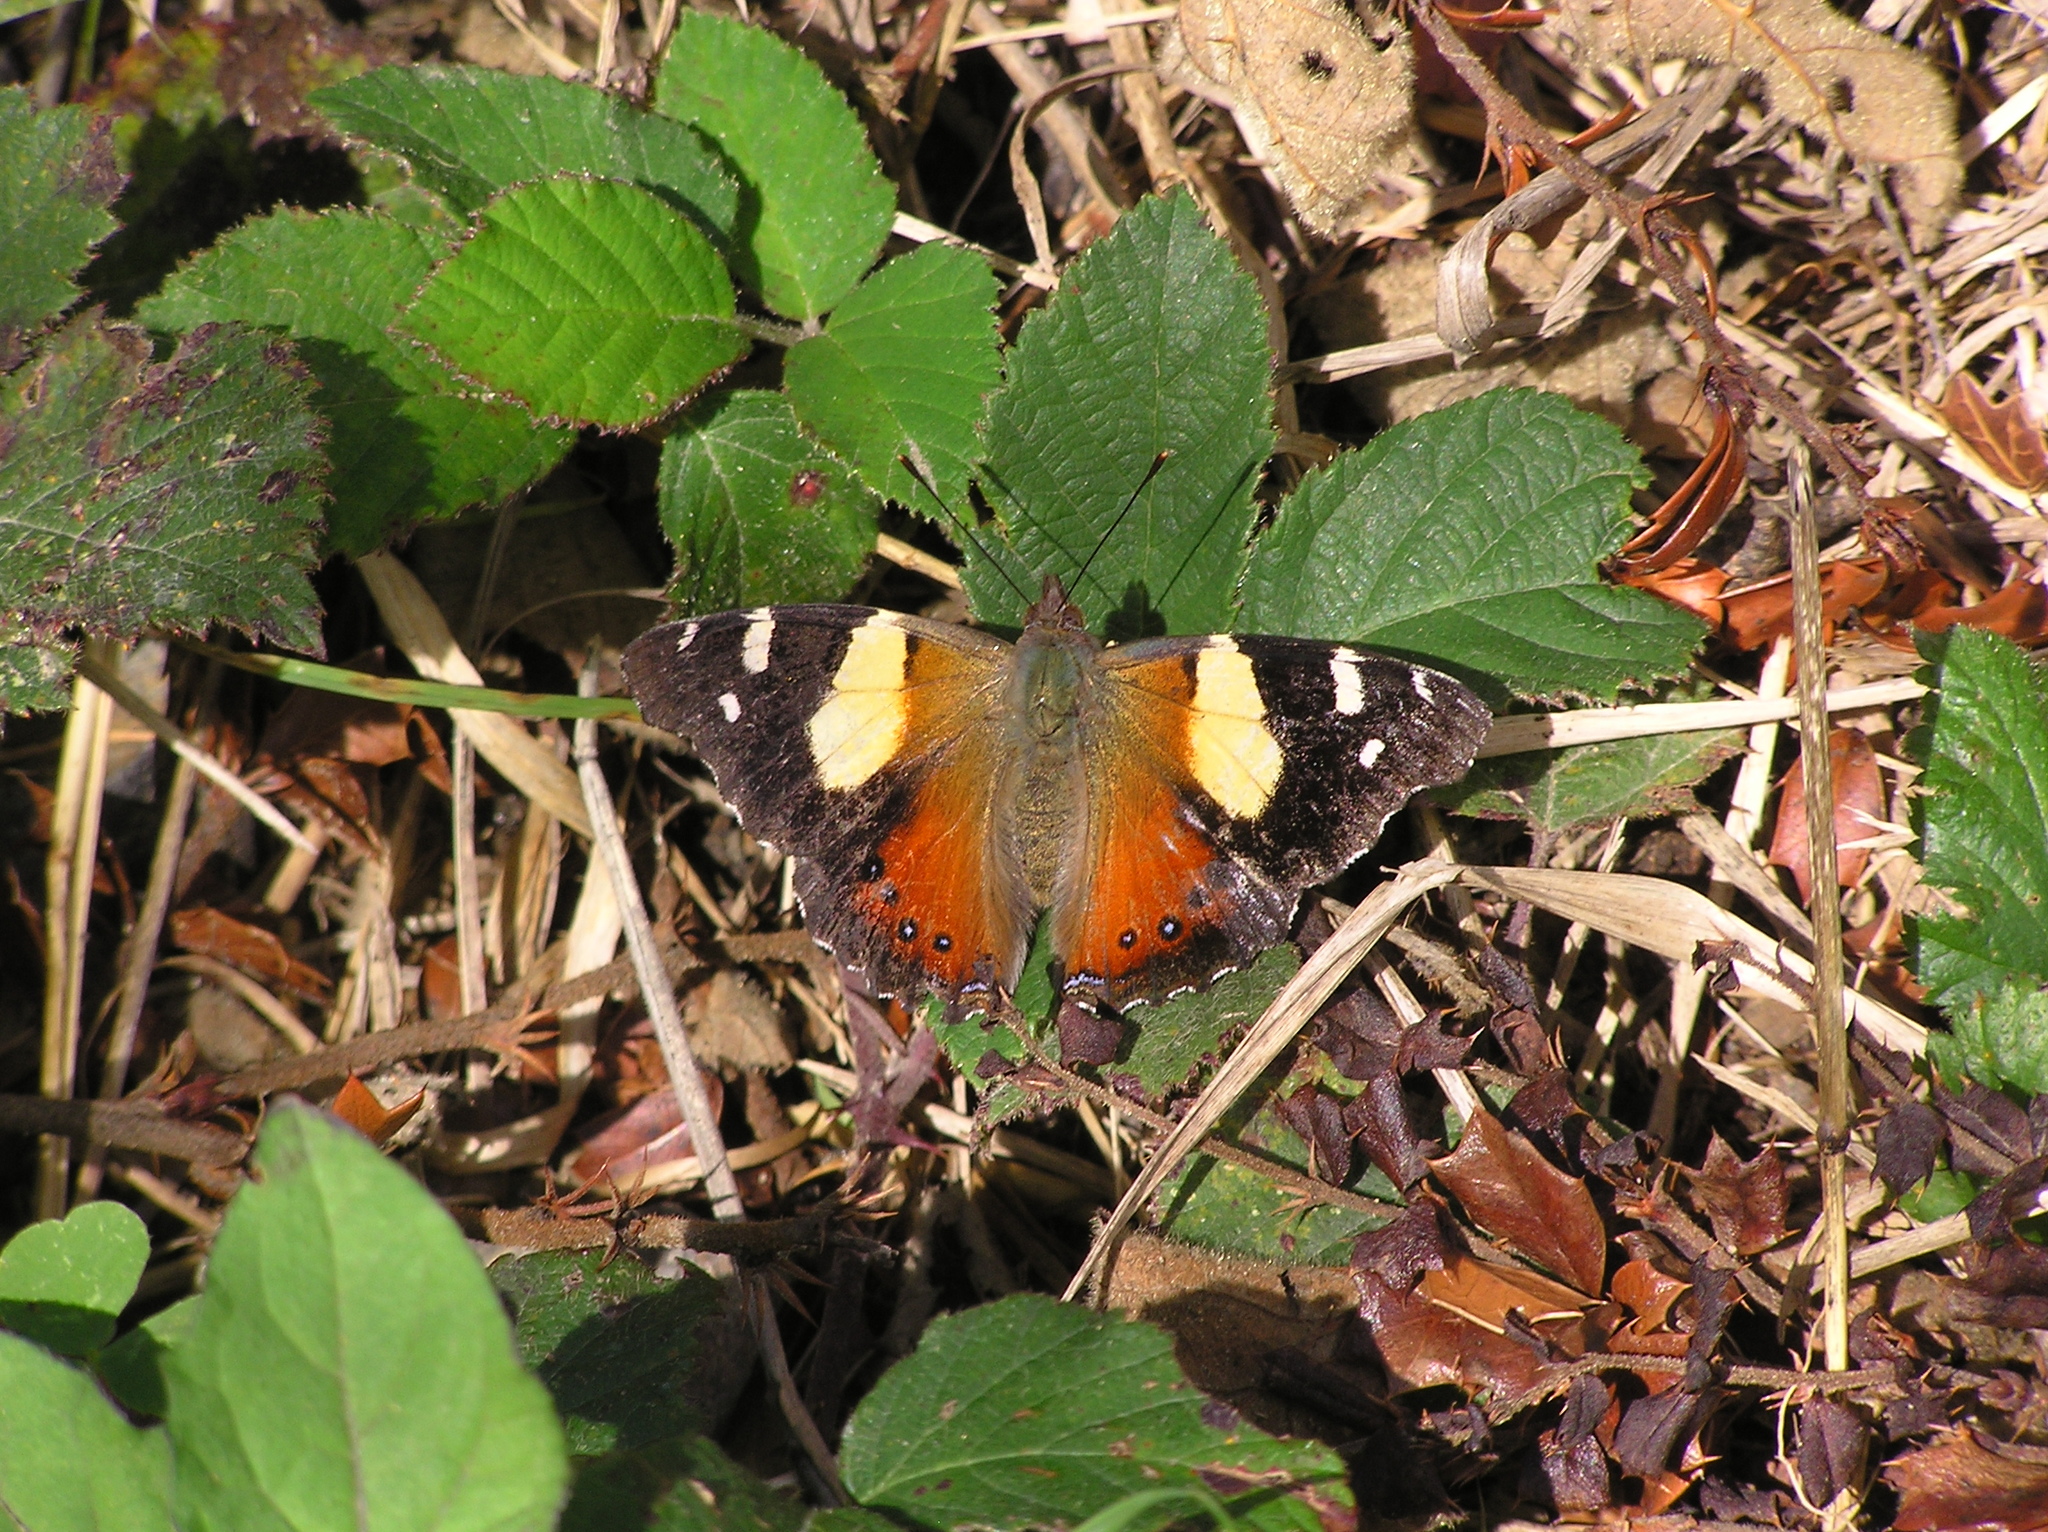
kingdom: Animalia
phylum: Arthropoda
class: Insecta
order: Lepidoptera
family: Nymphalidae
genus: Vanessa
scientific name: Vanessa itea
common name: Yellow admiral
